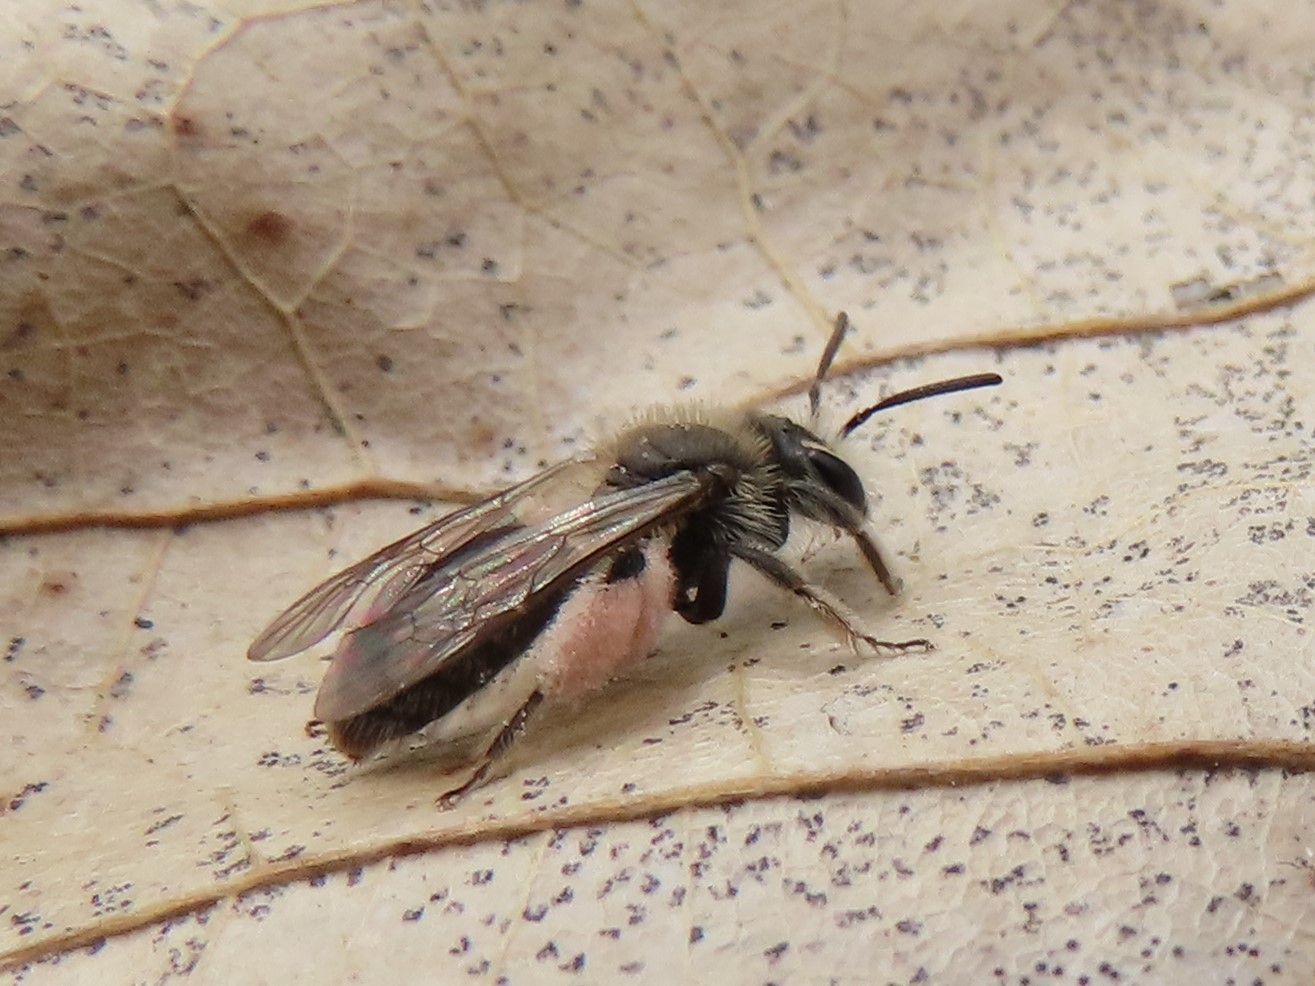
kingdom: Animalia
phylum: Arthropoda
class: Insecta
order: Hymenoptera
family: Andrenidae
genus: Andrena
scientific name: Andrena erigeniae
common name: Spring beauty miner
